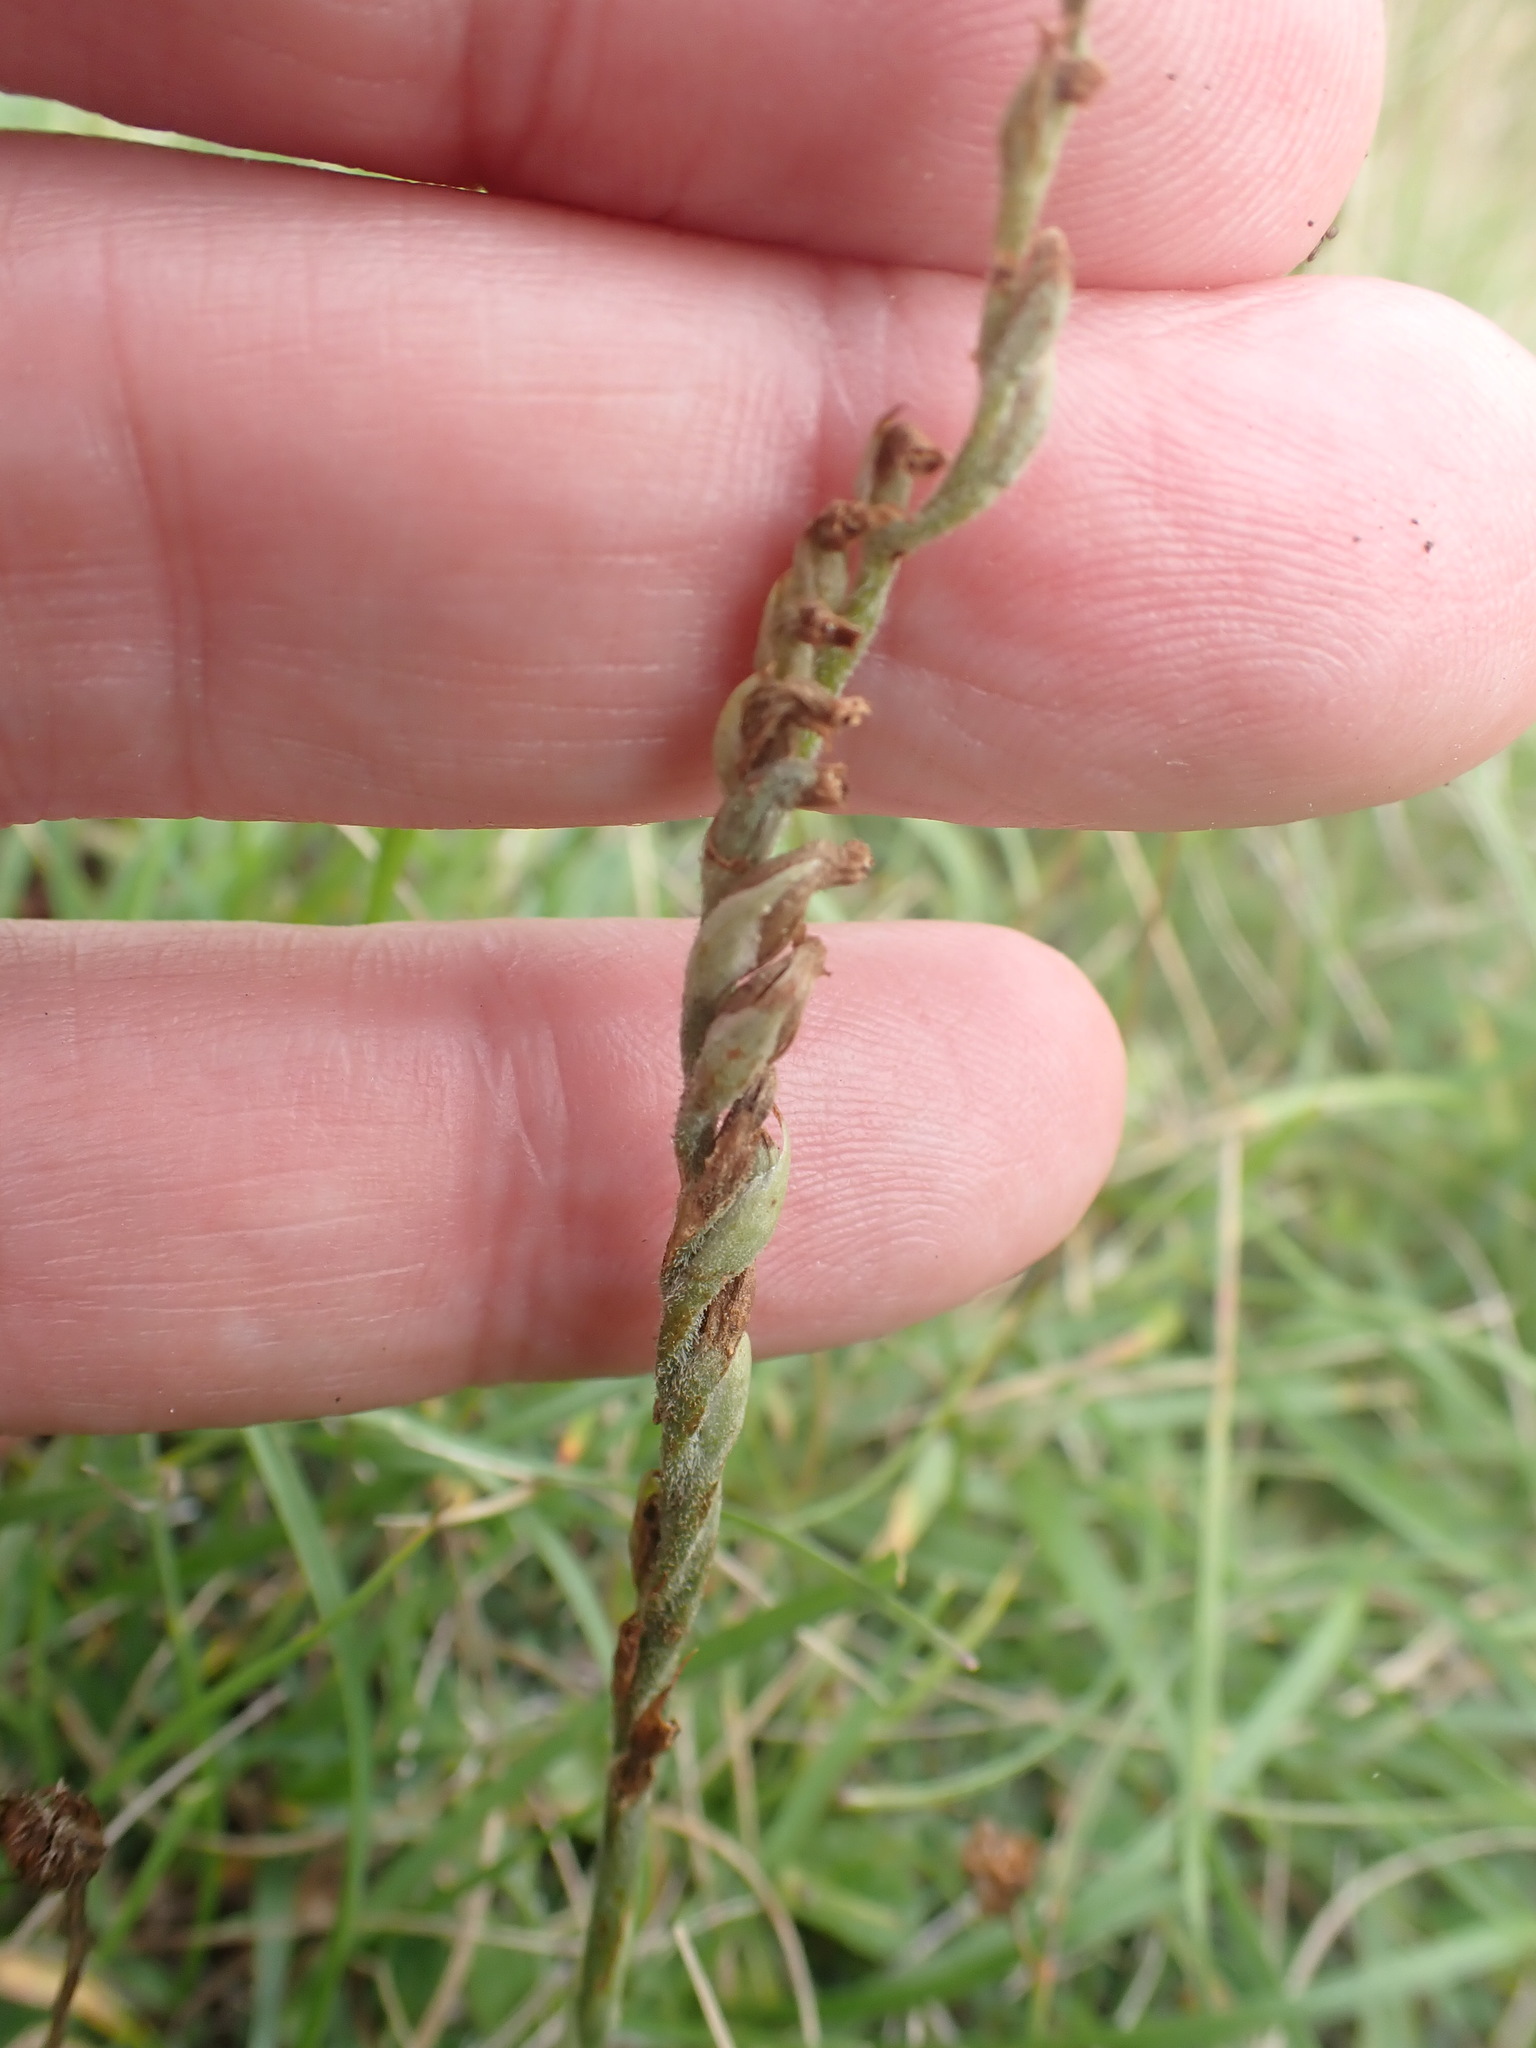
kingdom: Plantae
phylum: Tracheophyta
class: Liliopsida
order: Asparagales
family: Orchidaceae
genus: Spiranthes
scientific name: Spiranthes spiralis
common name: Autumn lady's-tresses
